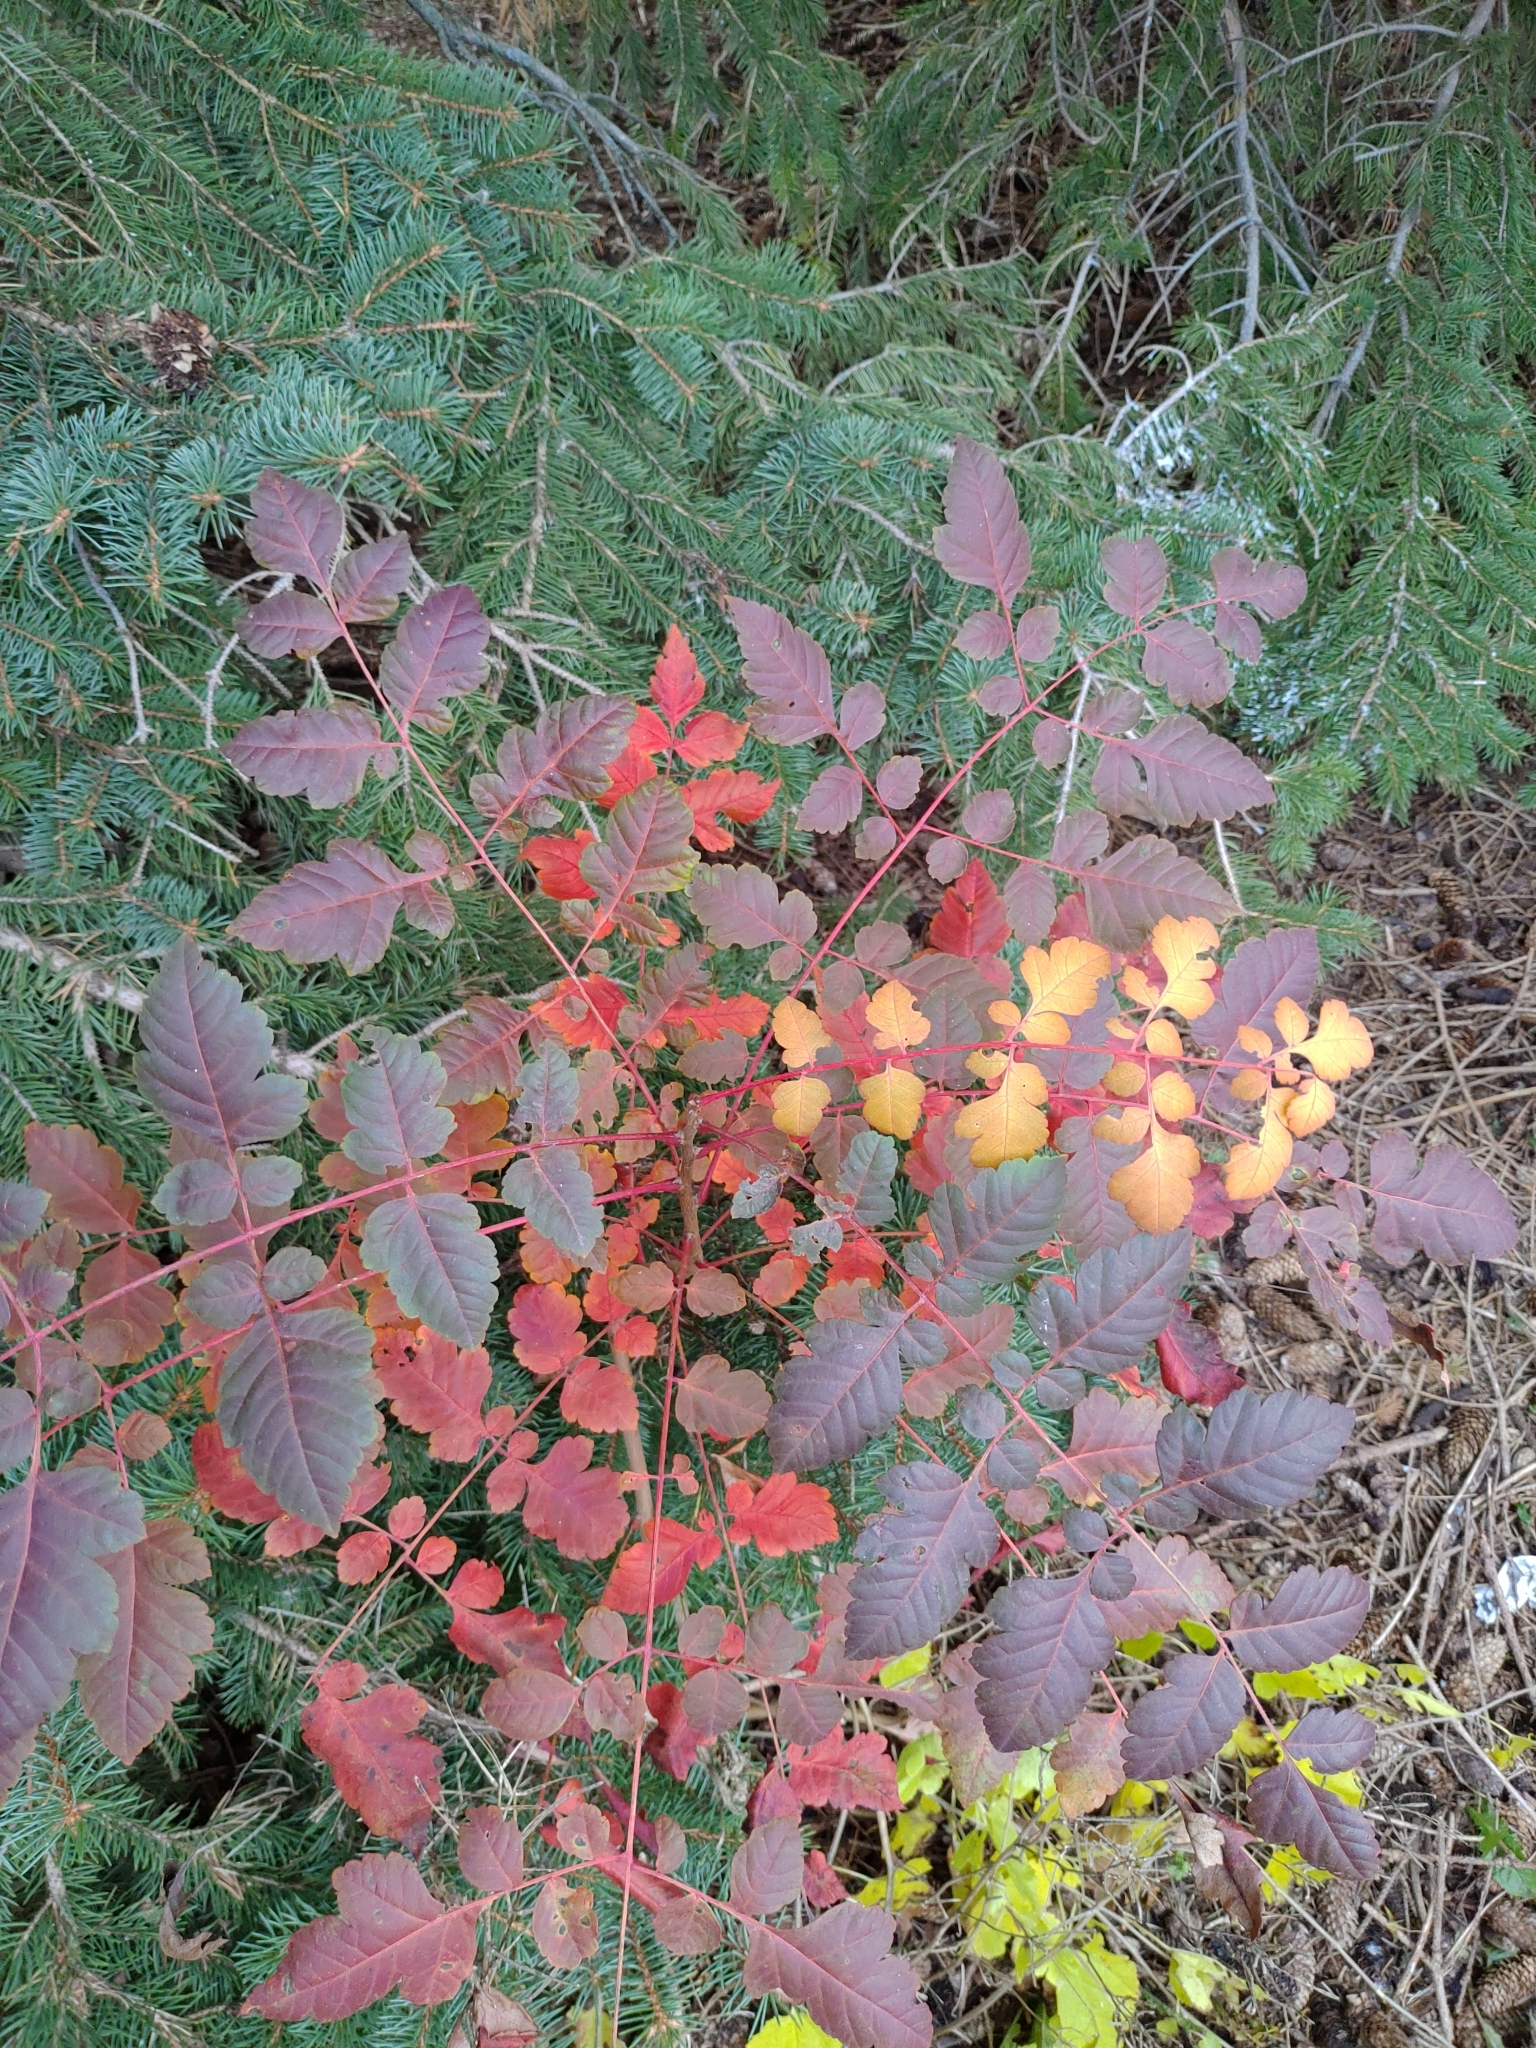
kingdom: Plantae
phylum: Tracheophyta
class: Magnoliopsida
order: Sapindales
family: Sapindaceae
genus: Koelreuteria
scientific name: Koelreuteria paniculata
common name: Pride-of-india
